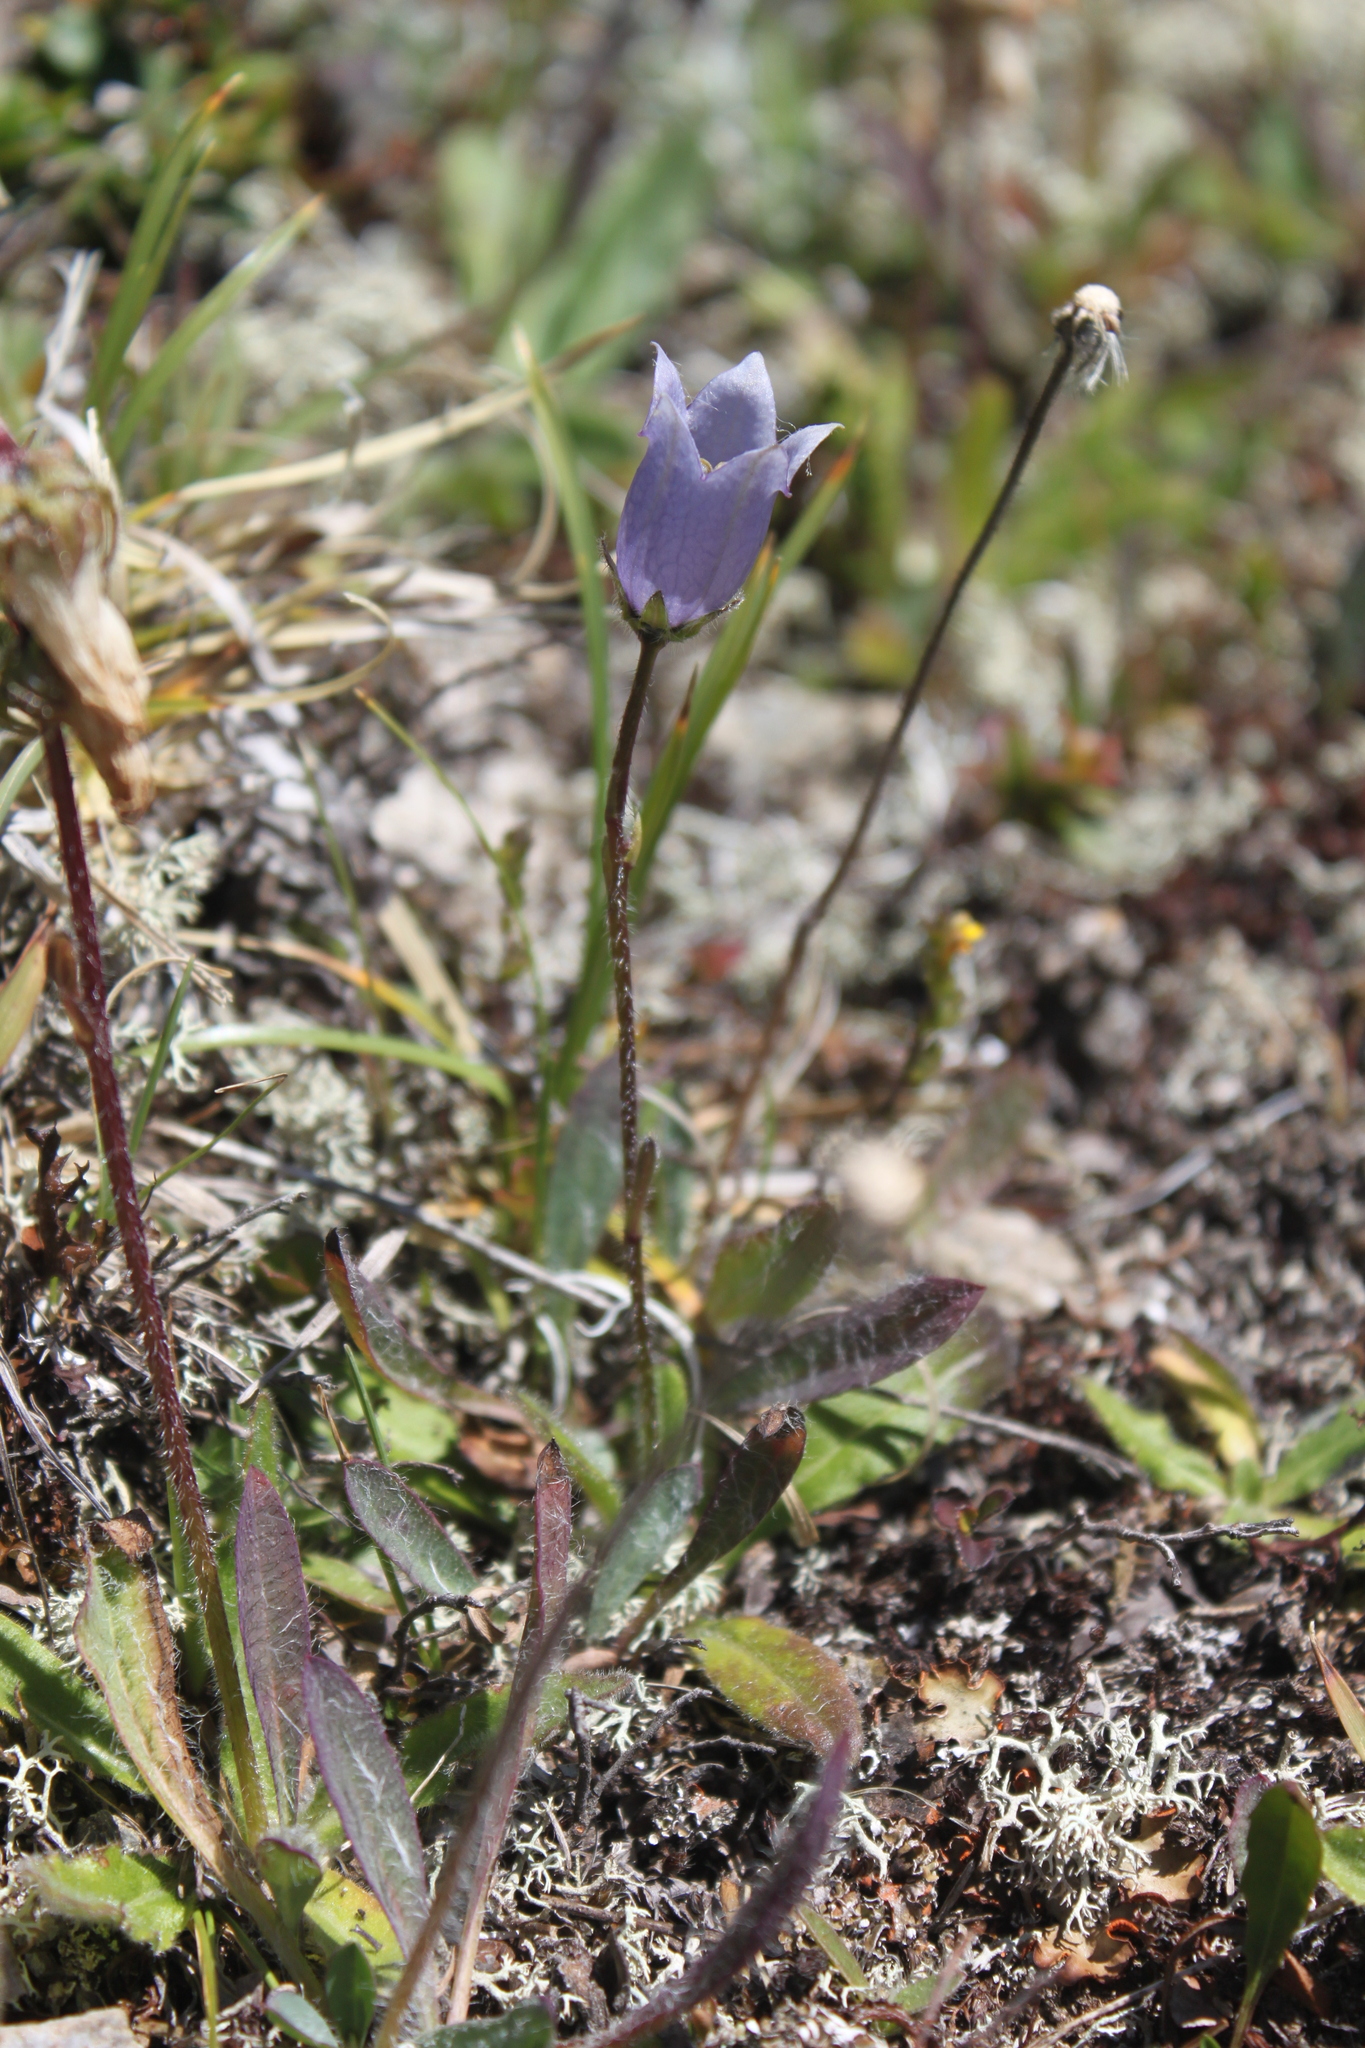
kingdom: Plantae
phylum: Tracheophyta
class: Magnoliopsida
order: Asterales
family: Campanulaceae
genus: Campanula
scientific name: Campanula barbata
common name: Bearded bellflower
